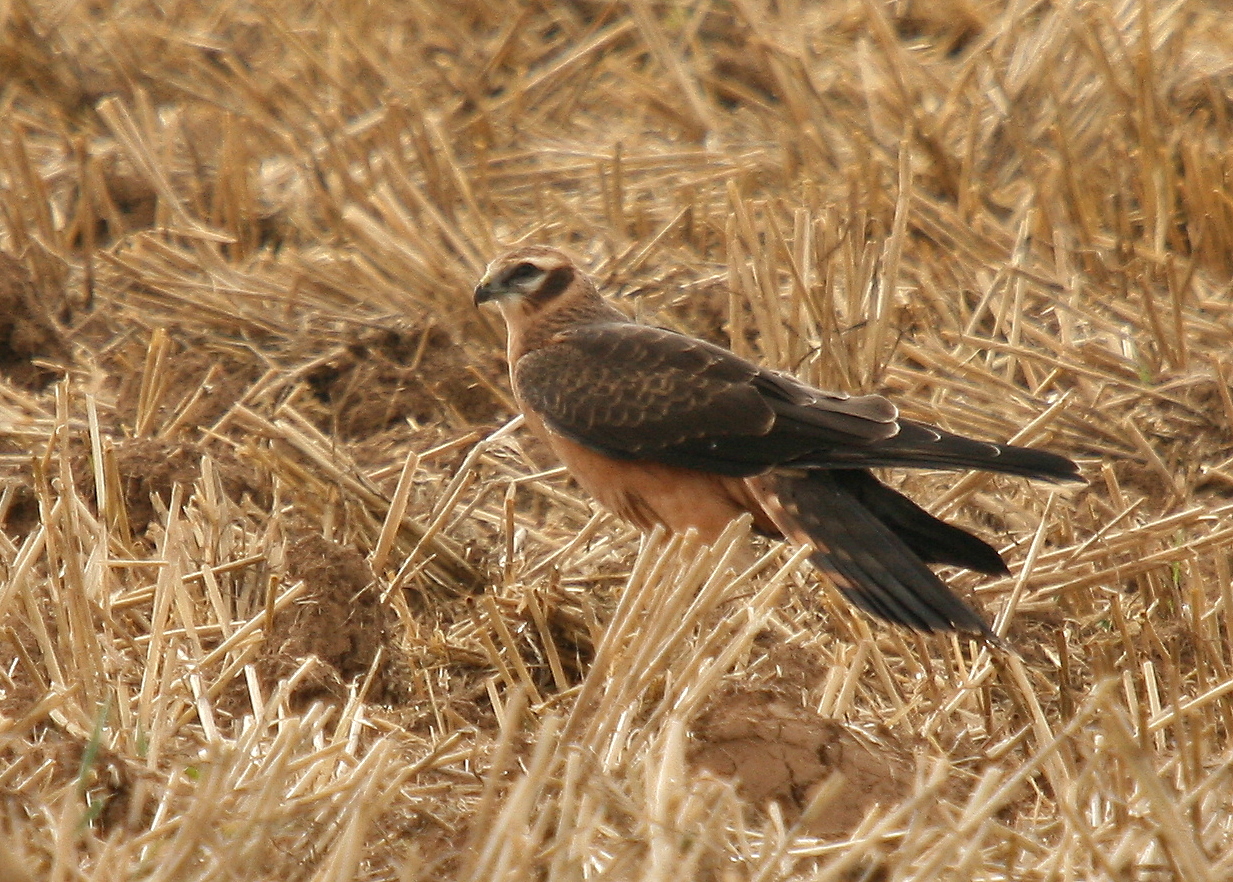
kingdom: Animalia
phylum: Chordata
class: Aves
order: Accipitriformes
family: Accipitridae
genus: Circus
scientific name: Circus pygargus
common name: Montagu's harrier
